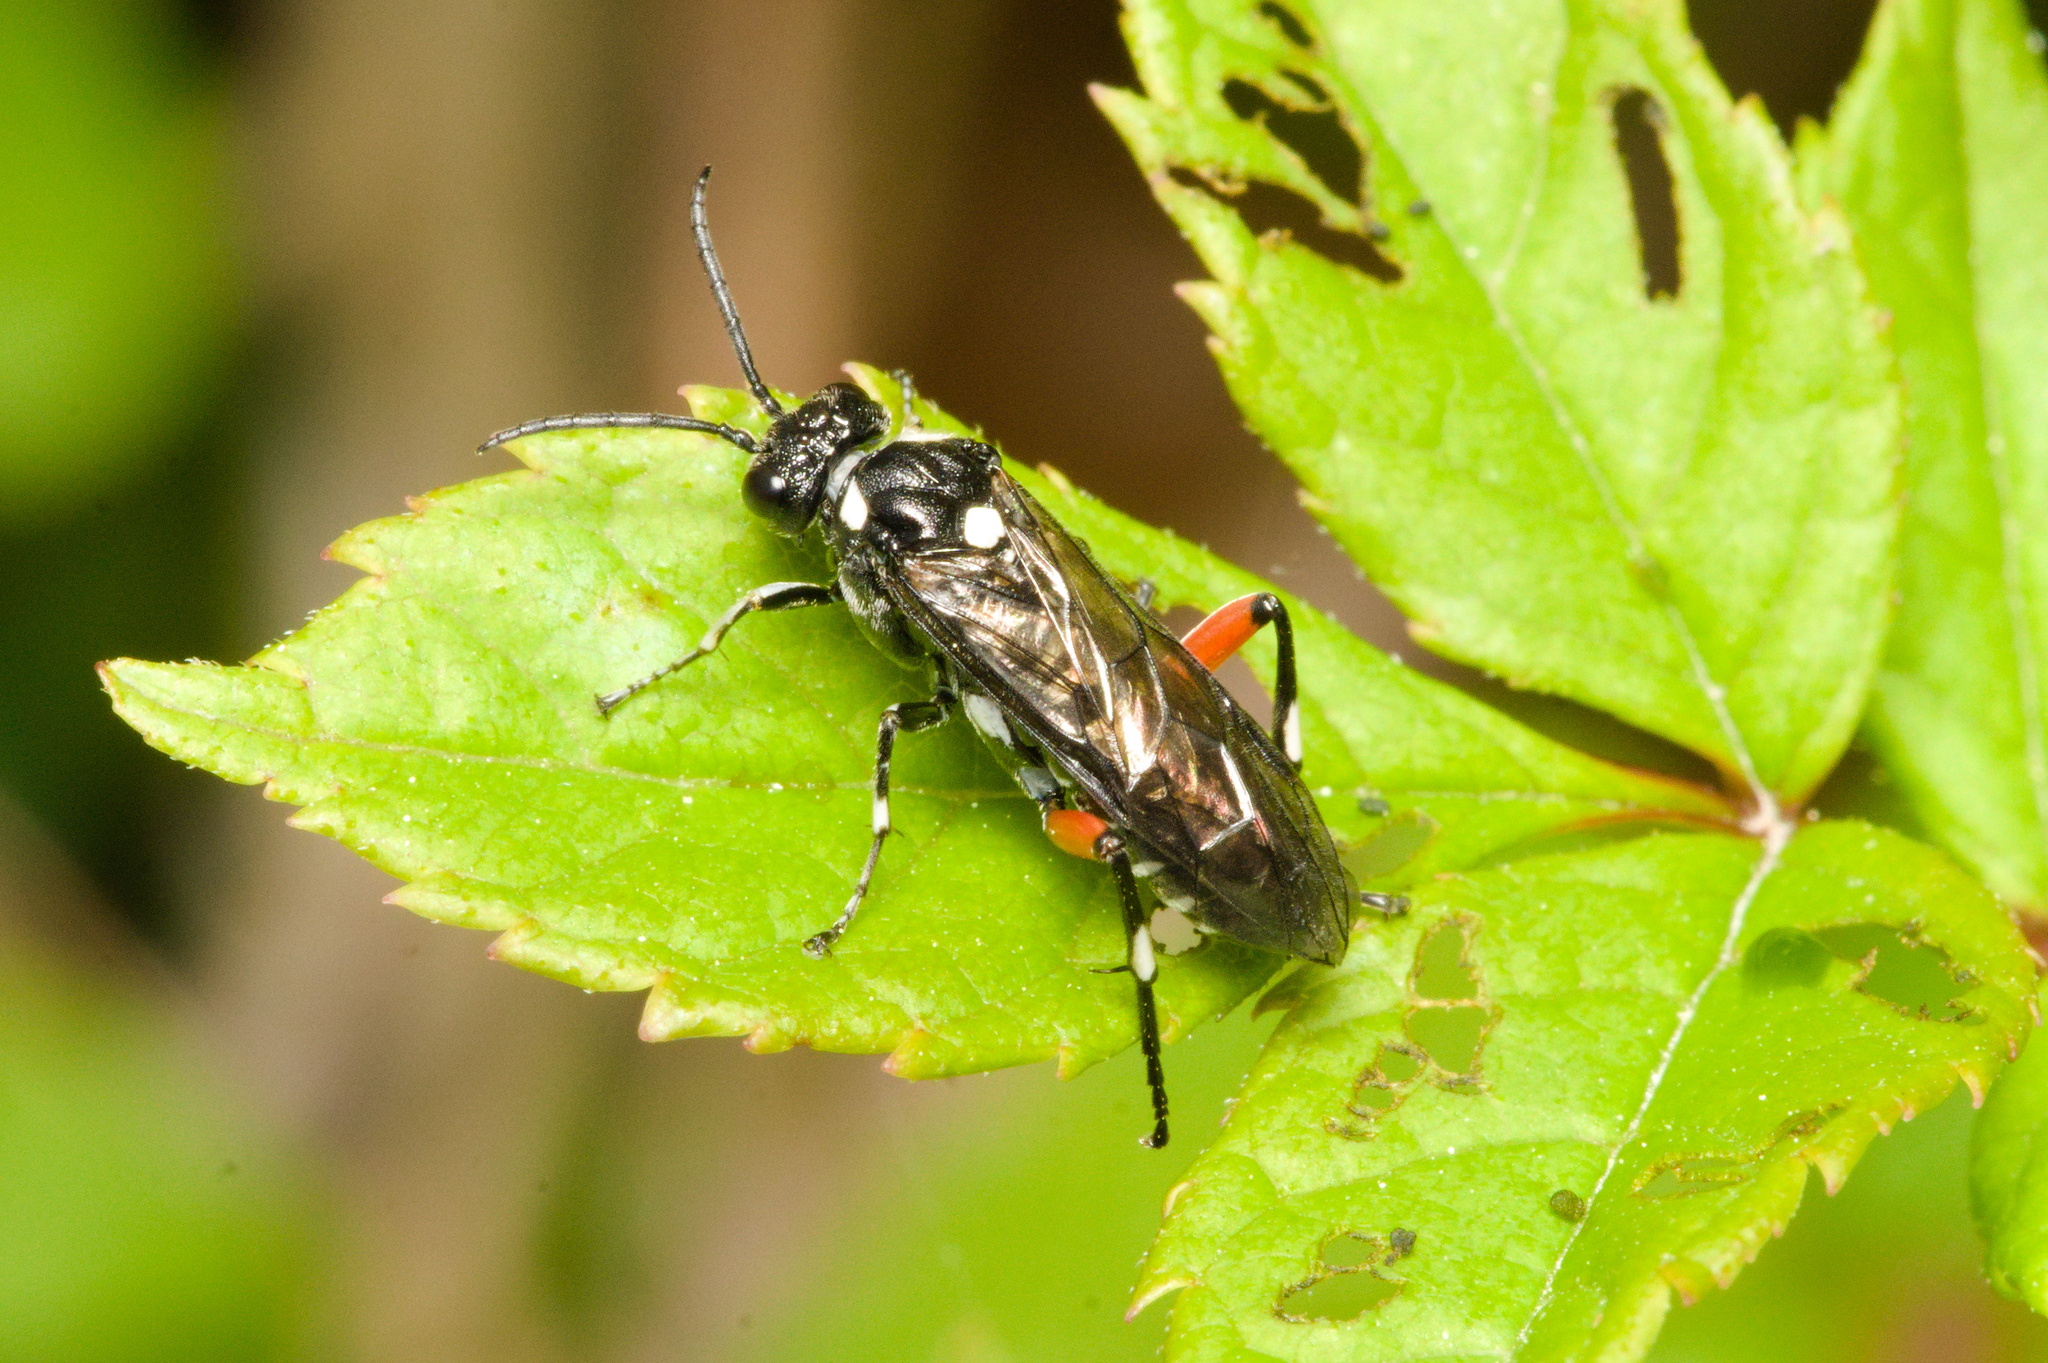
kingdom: Animalia
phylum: Arthropoda
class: Insecta
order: Hymenoptera
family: Tenthredinidae
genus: Macrophya
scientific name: Macrophya punctumalbum
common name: Sawfly
